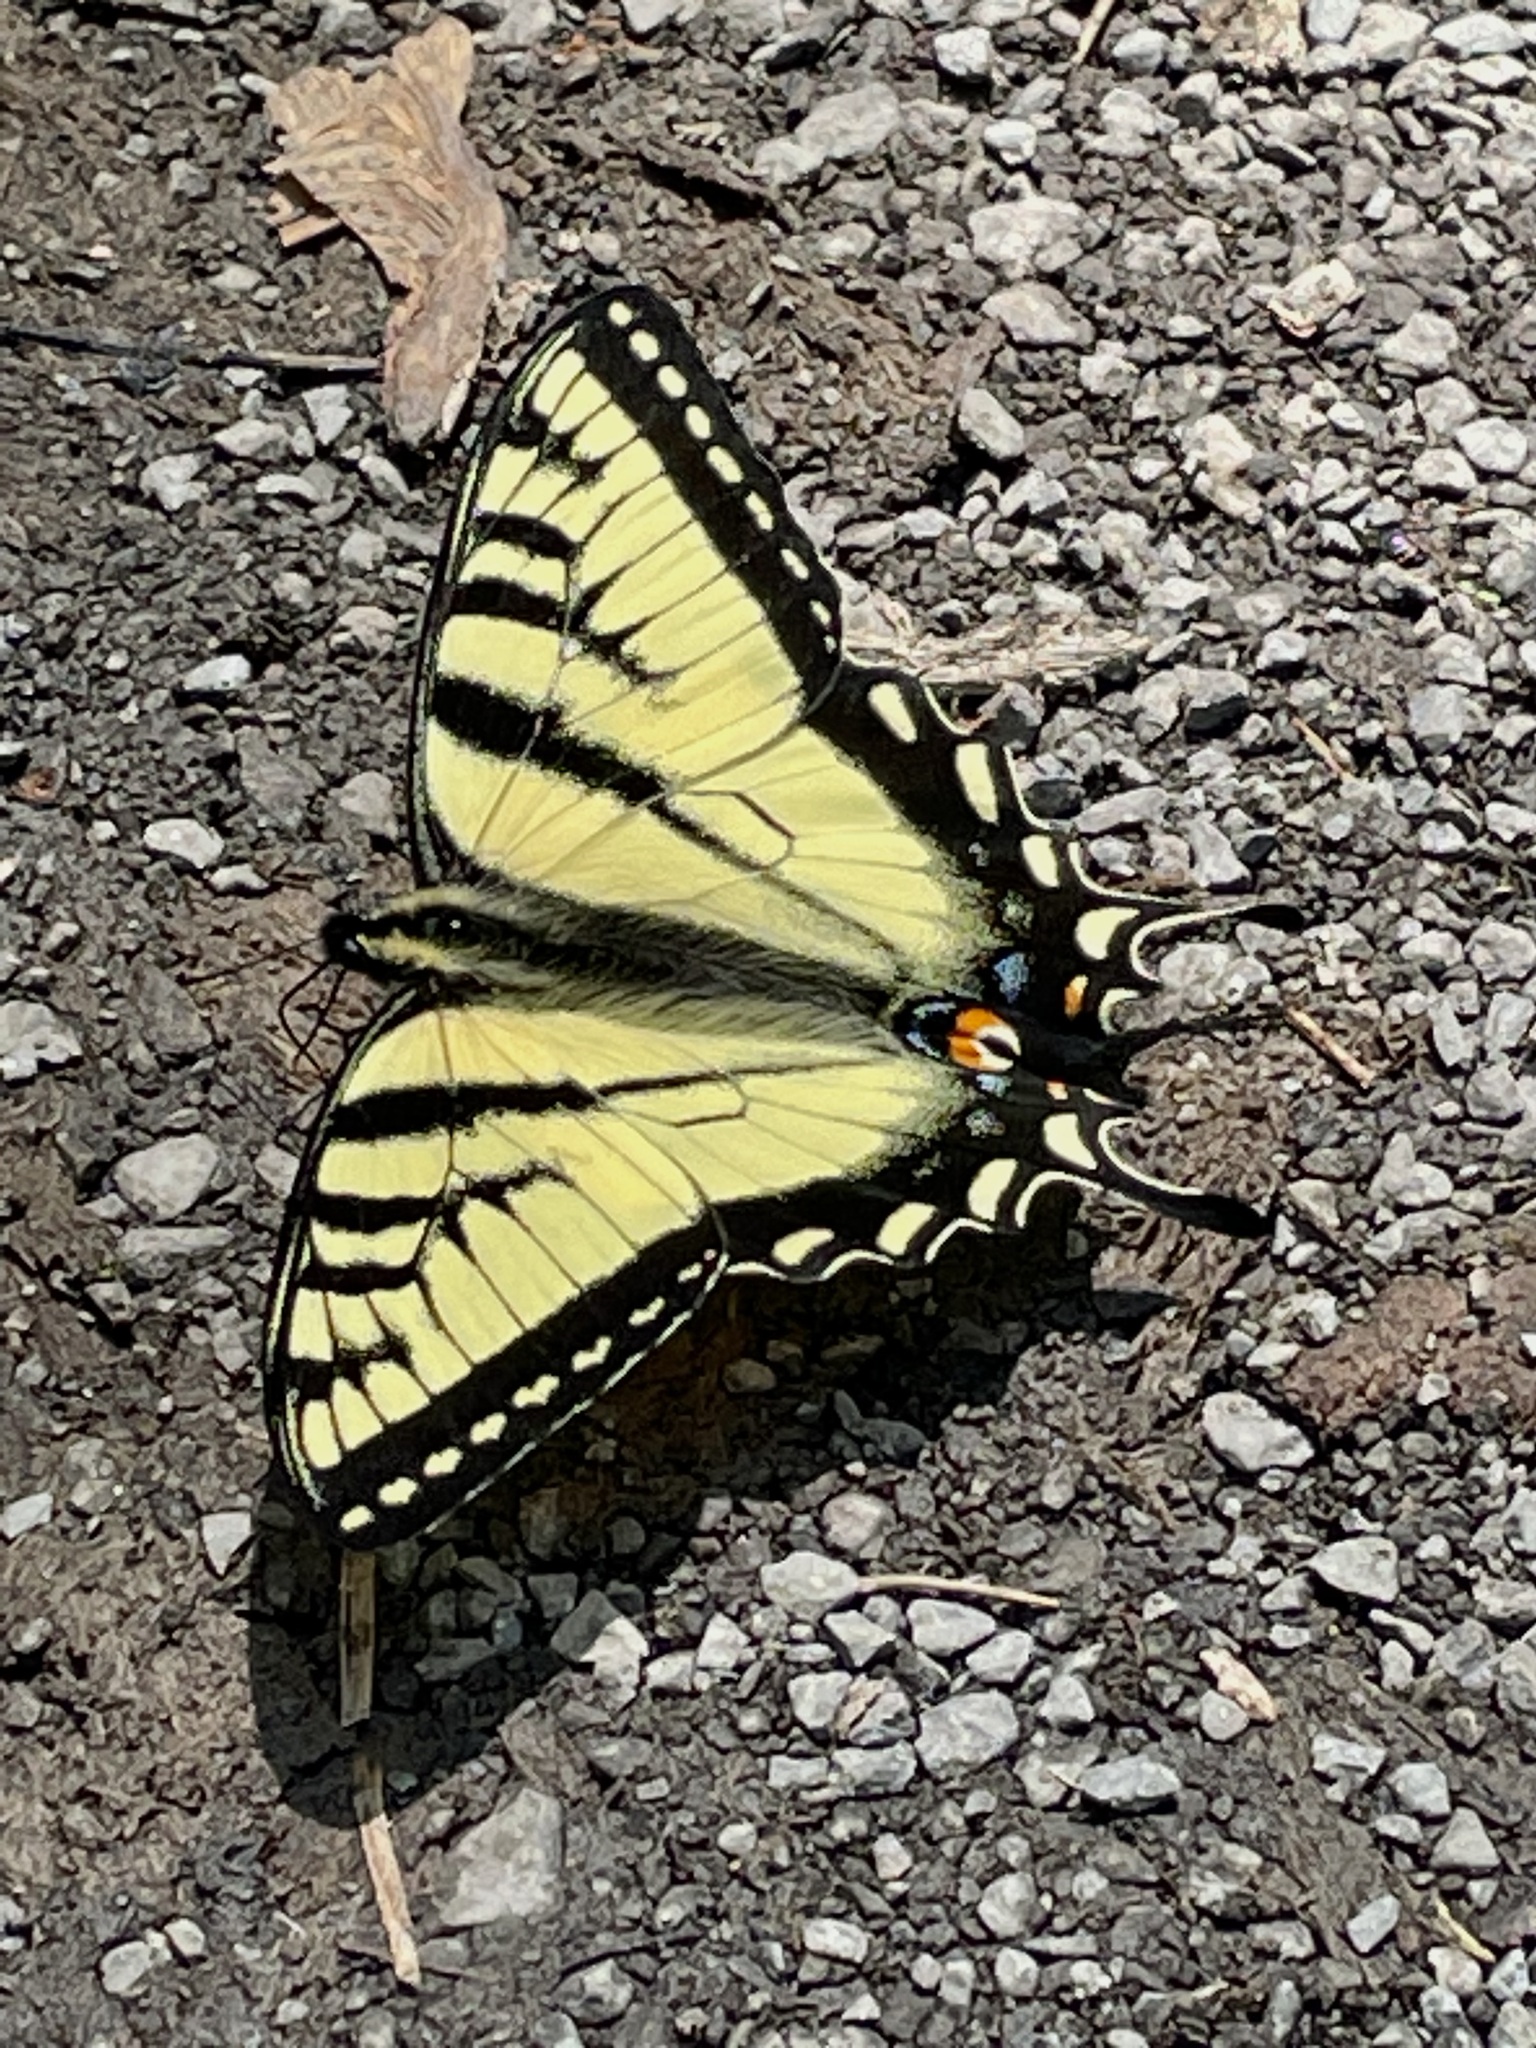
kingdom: Animalia
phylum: Arthropoda
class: Insecta
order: Lepidoptera
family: Papilionidae
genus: Papilio
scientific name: Papilio canadensis
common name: Canadian tiger swallowtail
